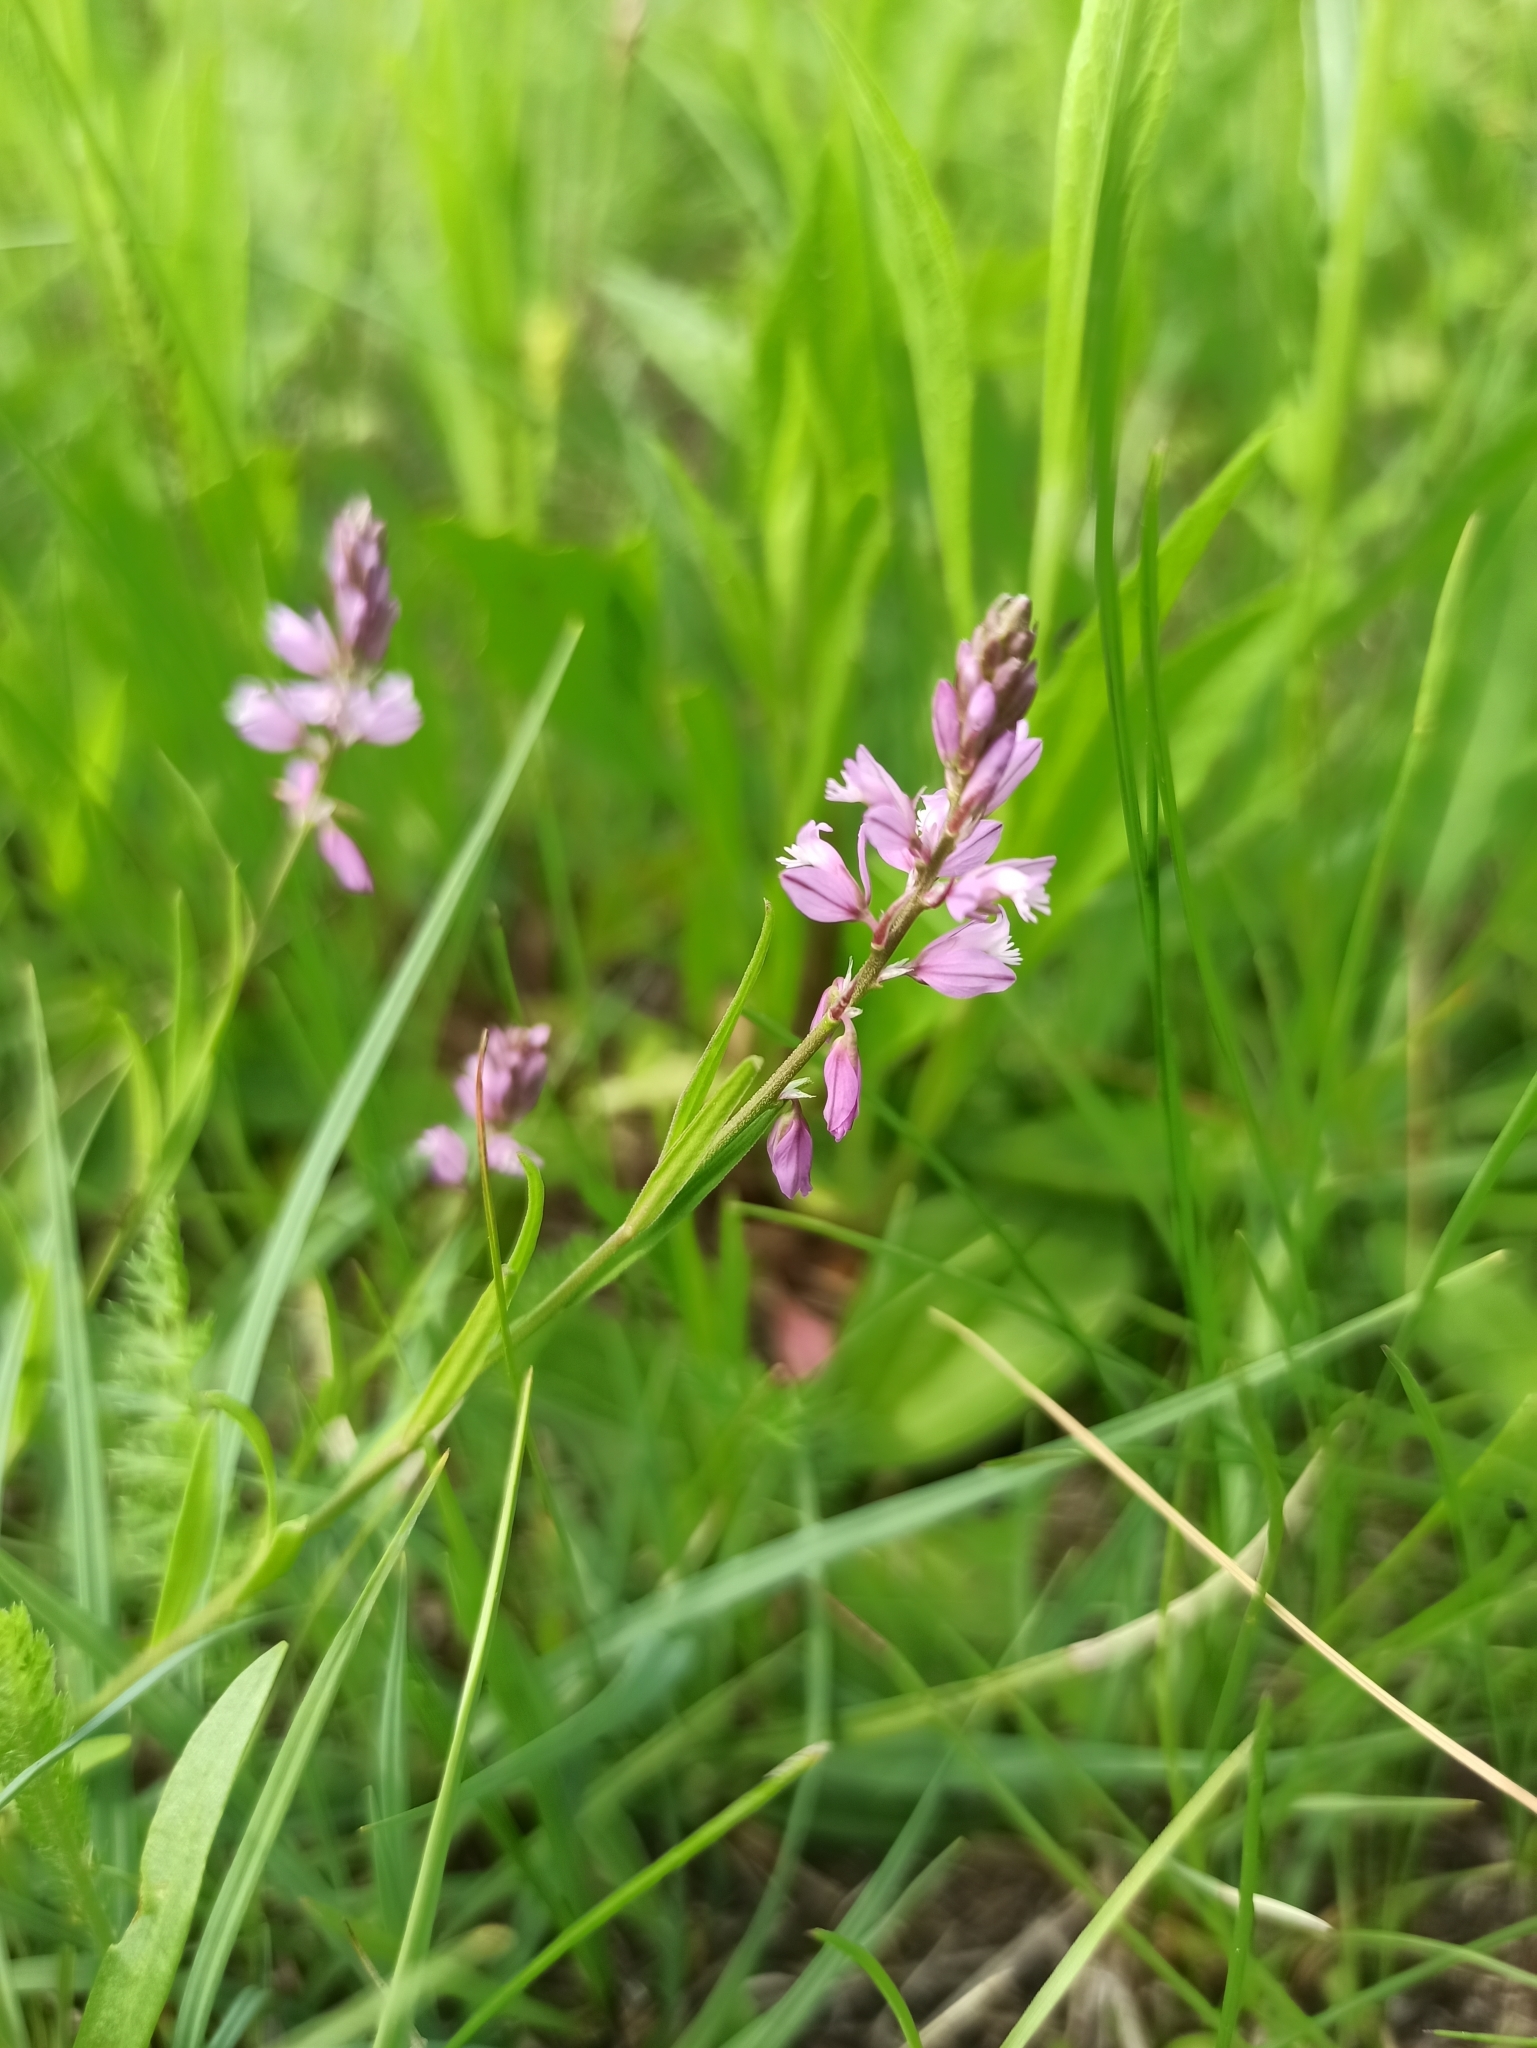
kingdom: Plantae
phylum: Tracheophyta
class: Magnoliopsida
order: Fabales
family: Polygalaceae
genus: Polygala
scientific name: Polygala comosa
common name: Tufted milkwort
